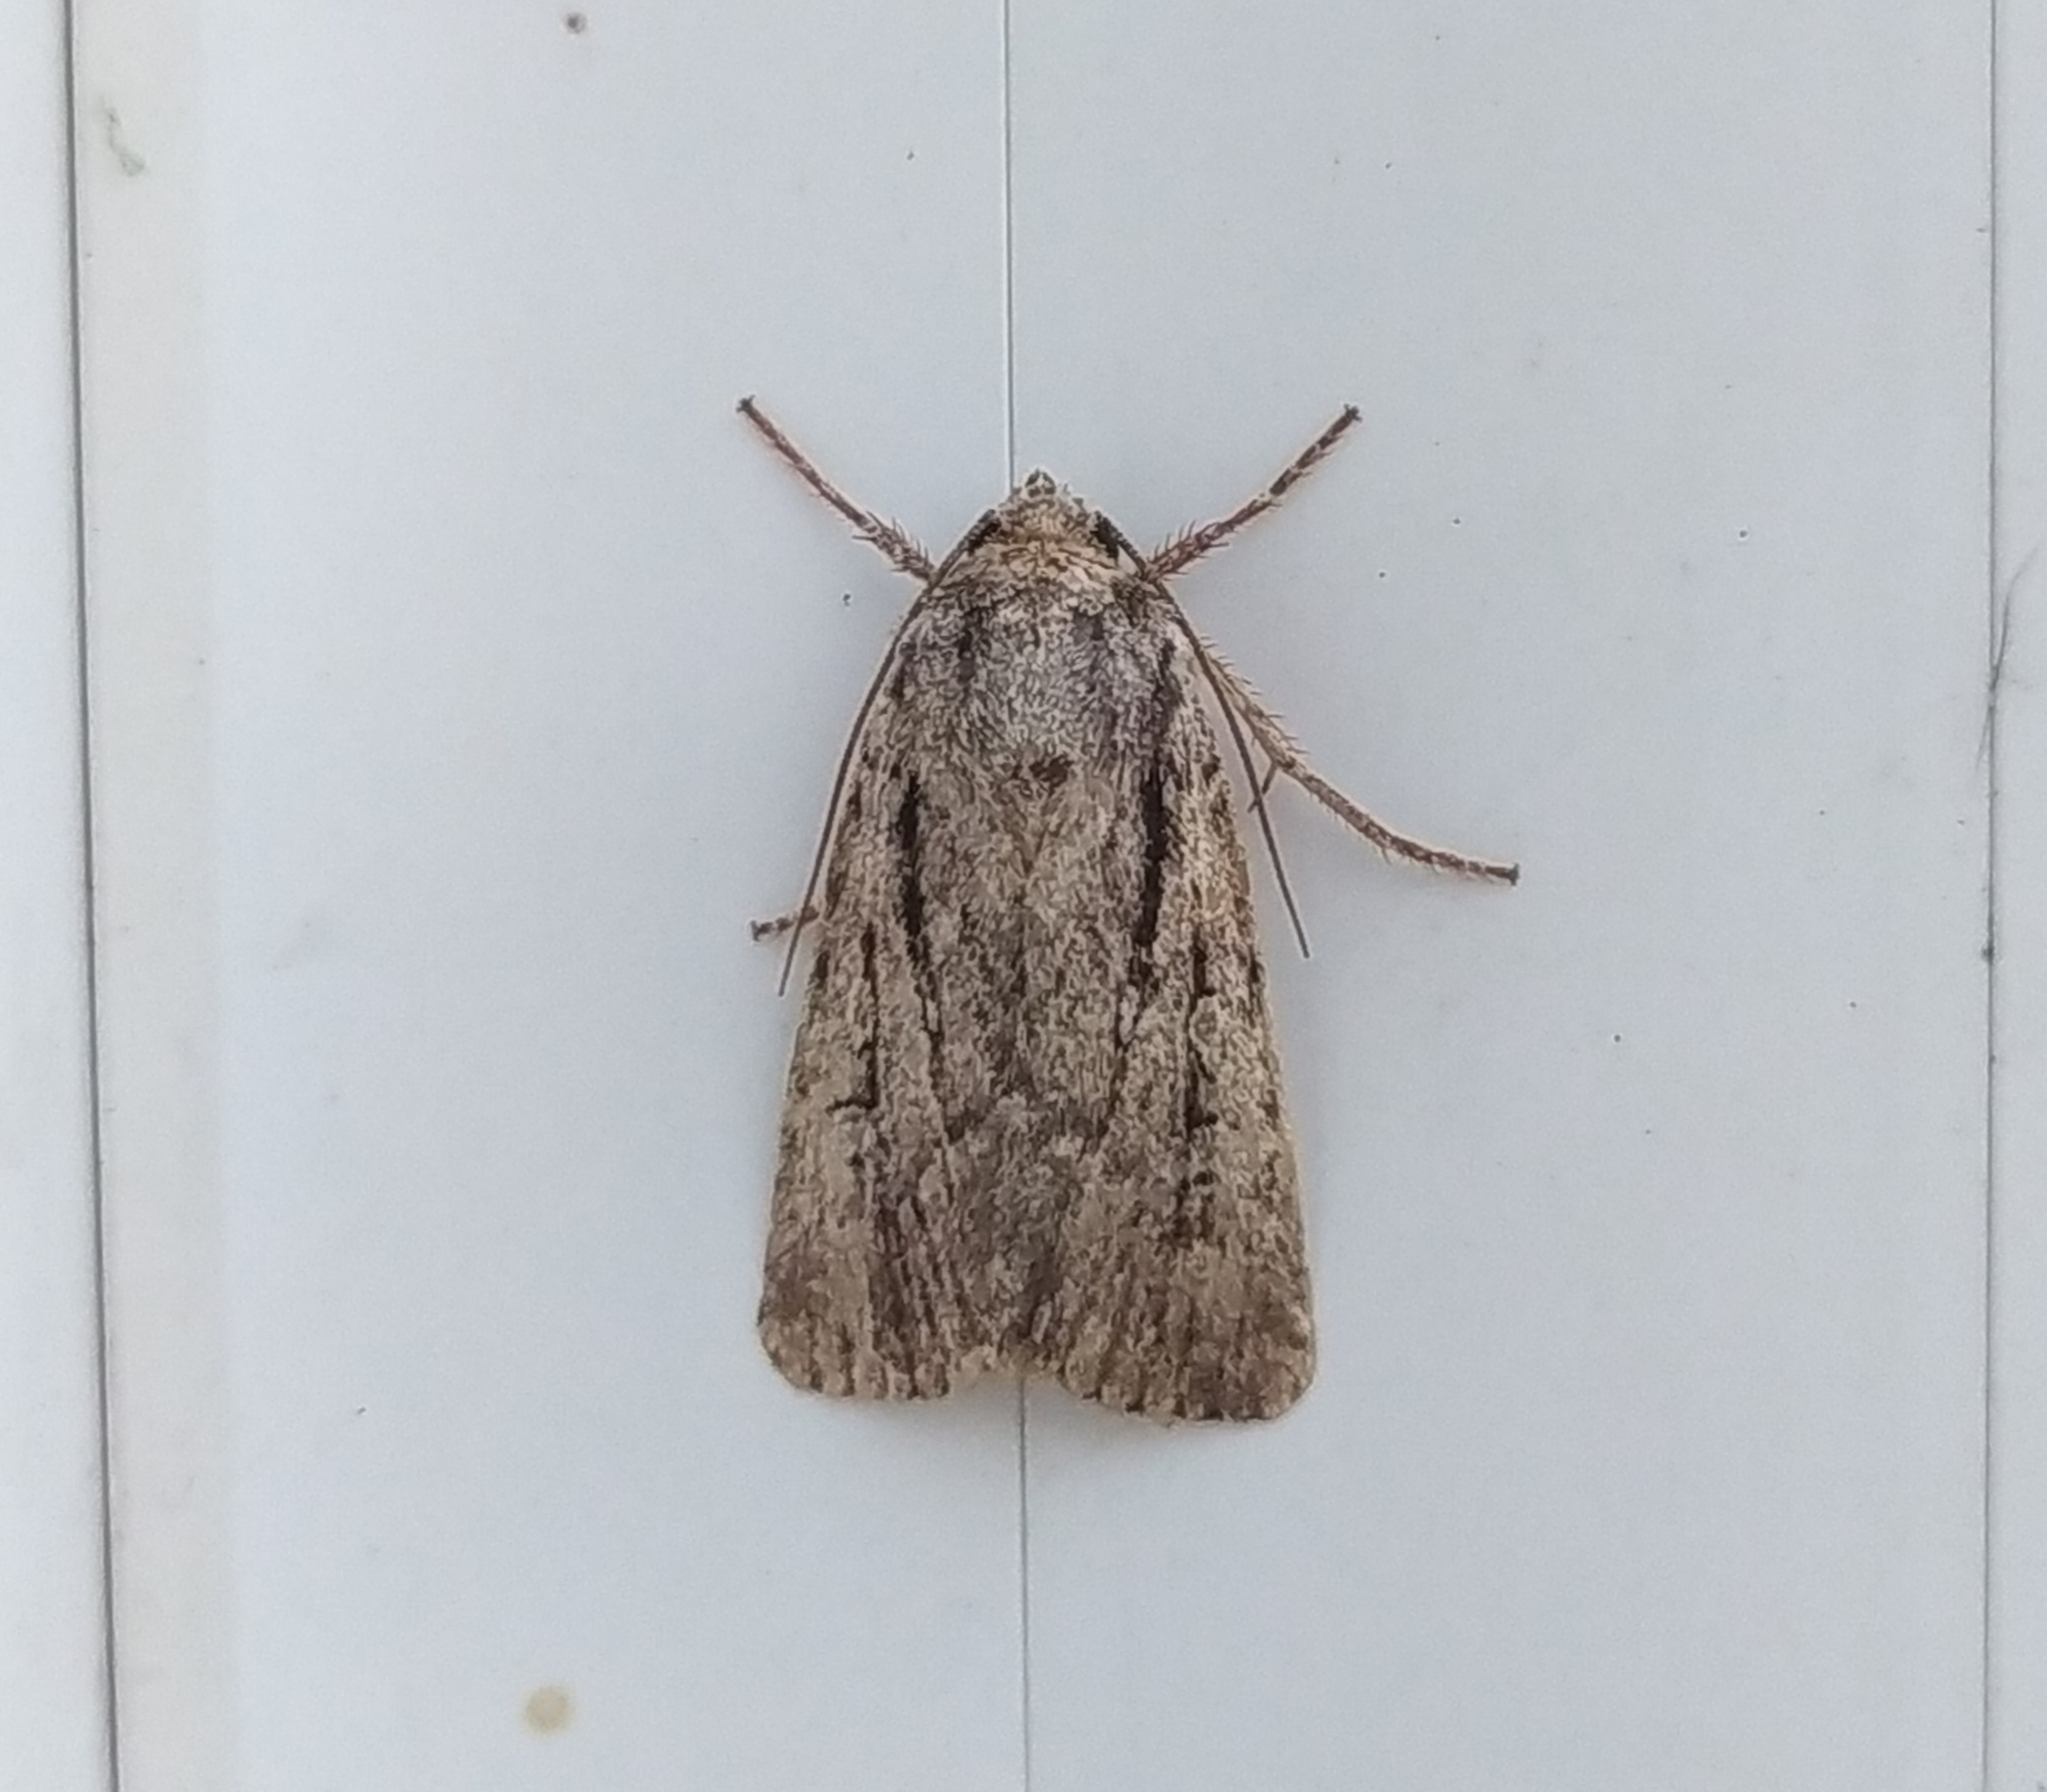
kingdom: Animalia
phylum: Arthropoda
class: Insecta
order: Lepidoptera
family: Noctuidae
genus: Yigoga
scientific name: Yigoga signifera
